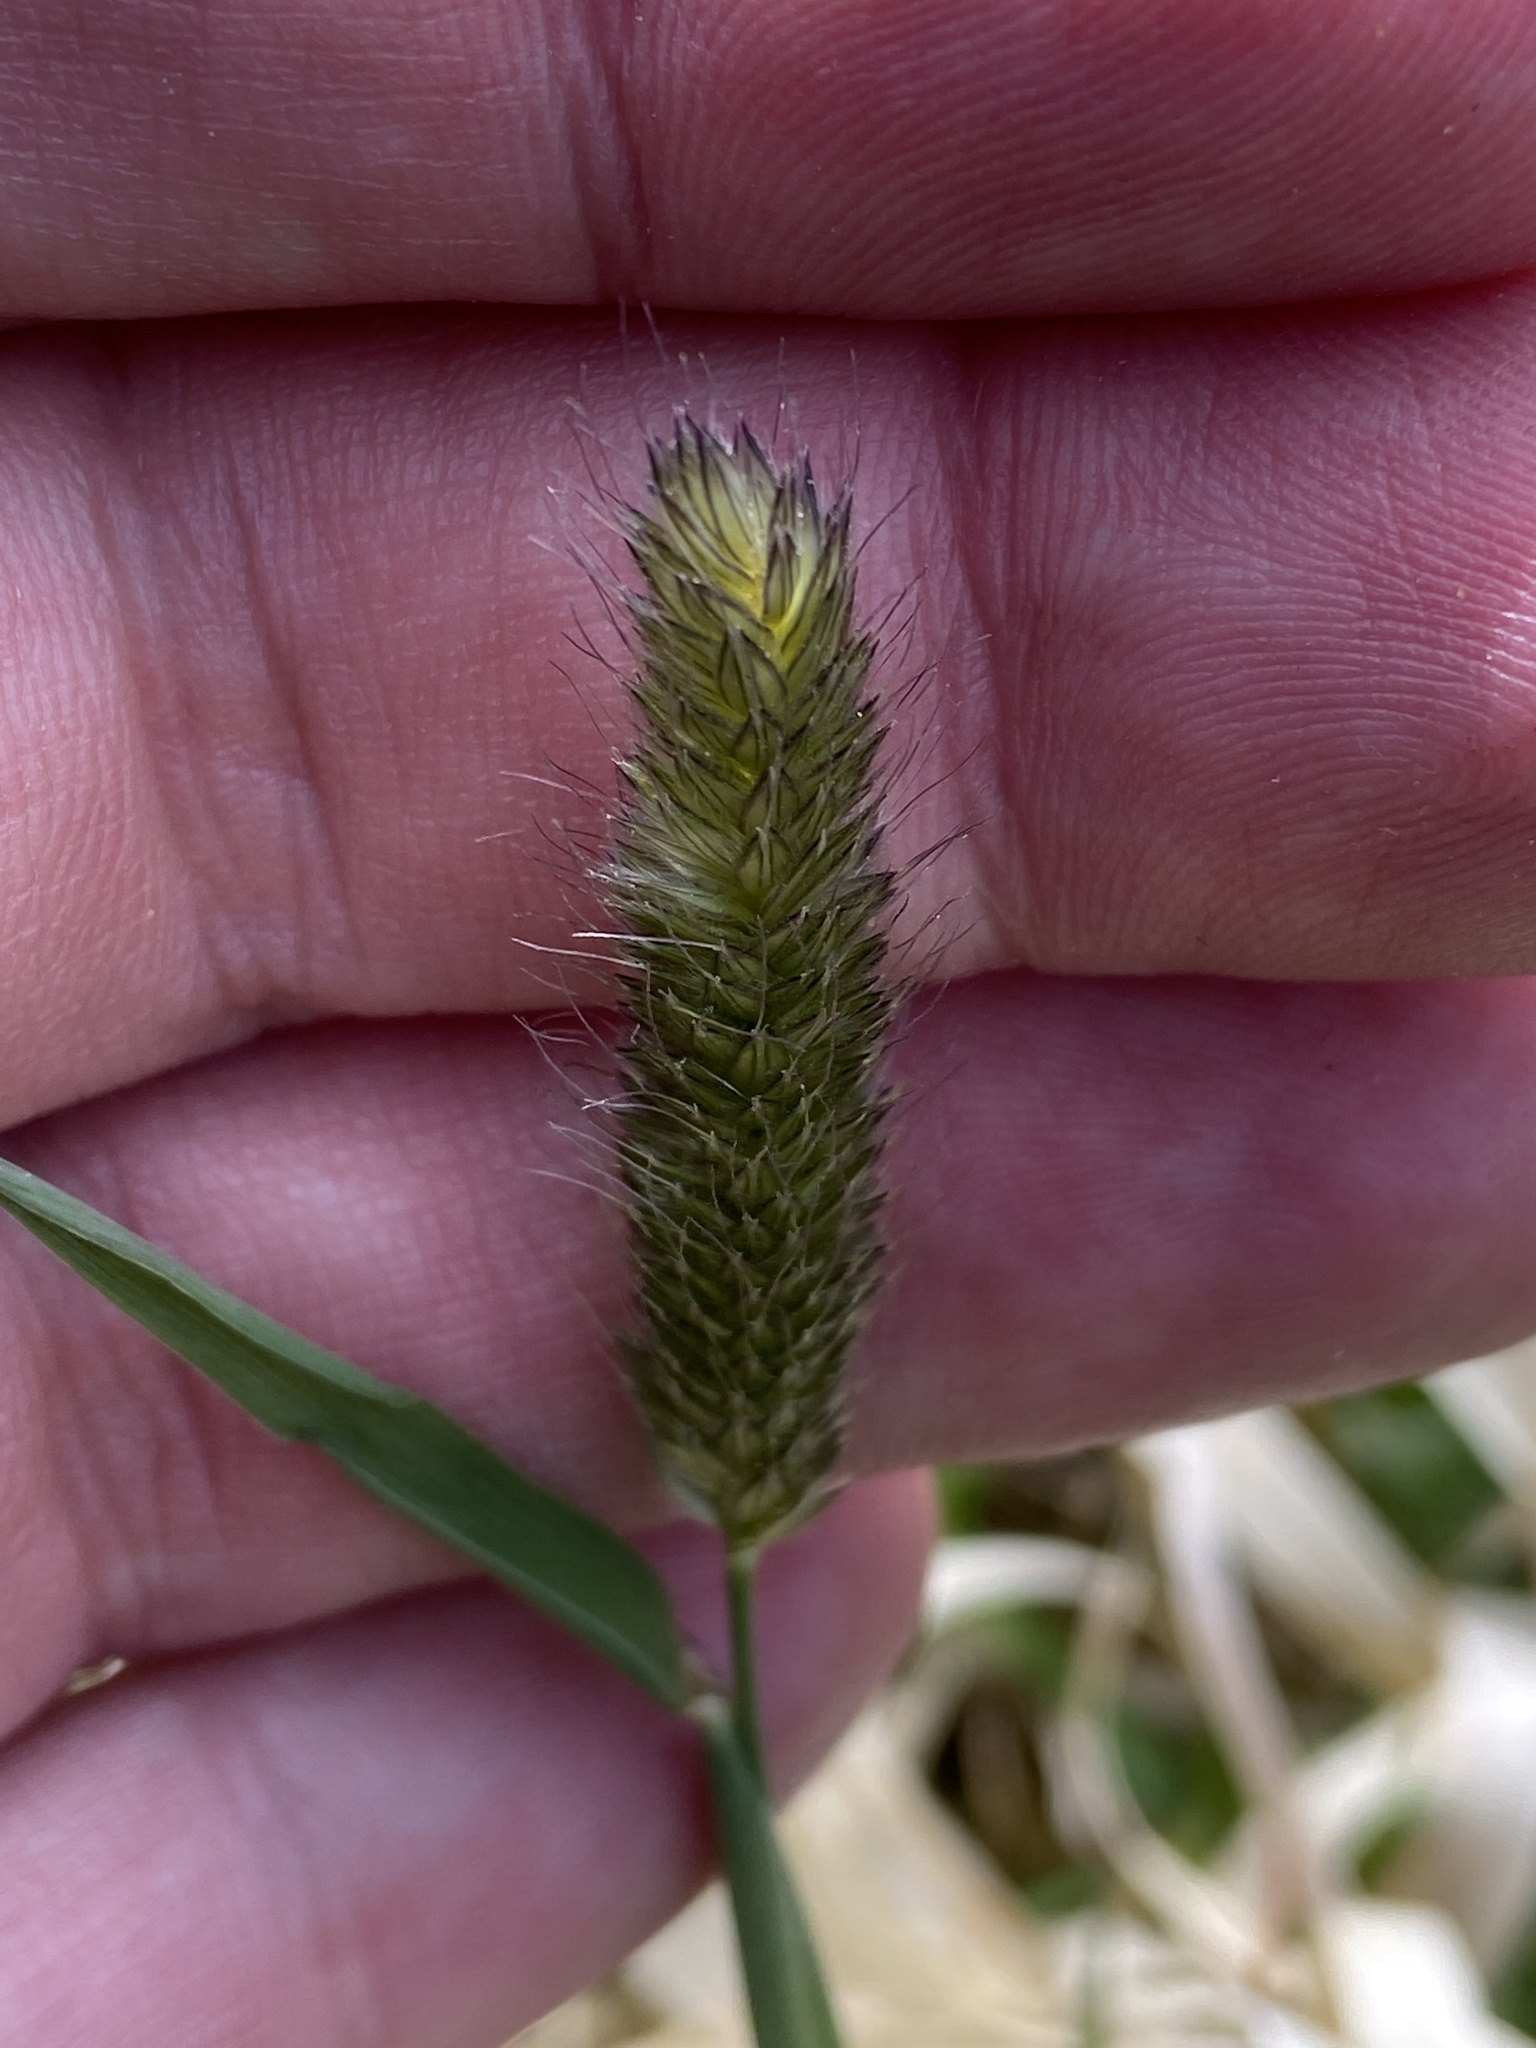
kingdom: Plantae
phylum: Tracheophyta
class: Liliopsida
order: Poales
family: Poaceae
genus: Alopecurus
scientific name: Alopecurus pratensis
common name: Meadow foxtail
